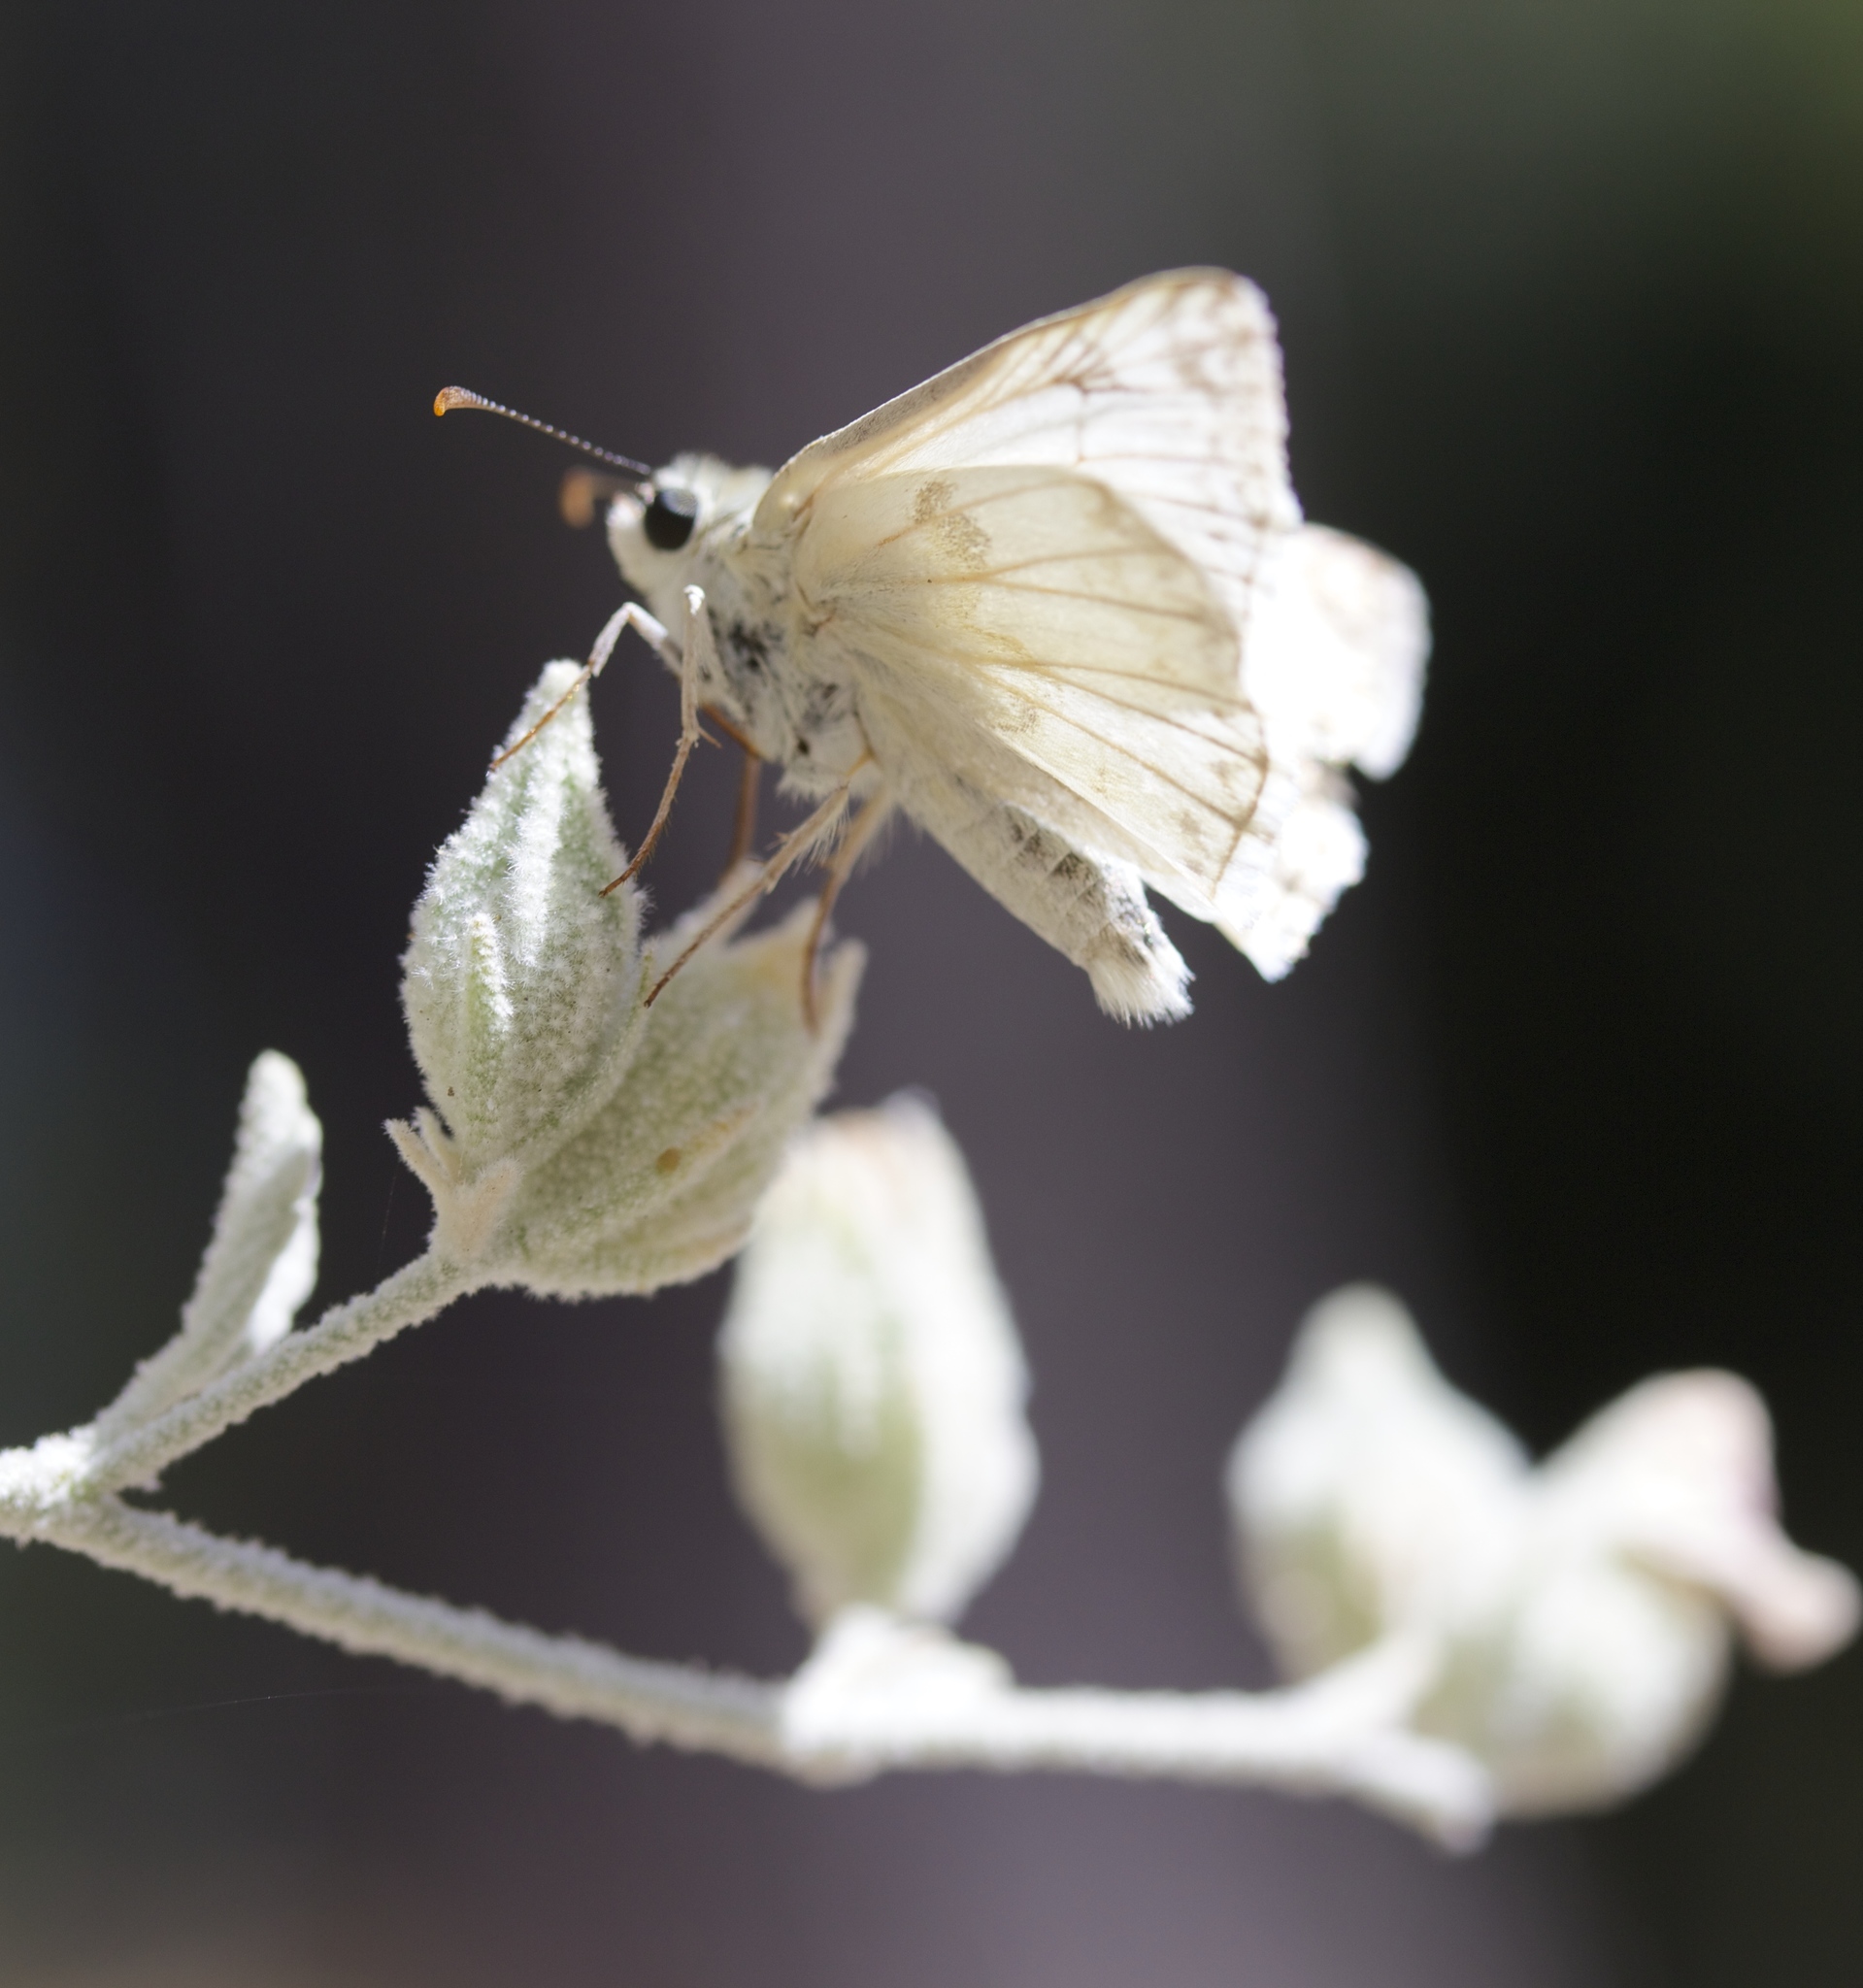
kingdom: Animalia
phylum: Arthropoda
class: Insecta
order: Lepidoptera
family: Hesperiidae
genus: Heliopetes
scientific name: Heliopetes ericetorum
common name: Northern white-skipper
